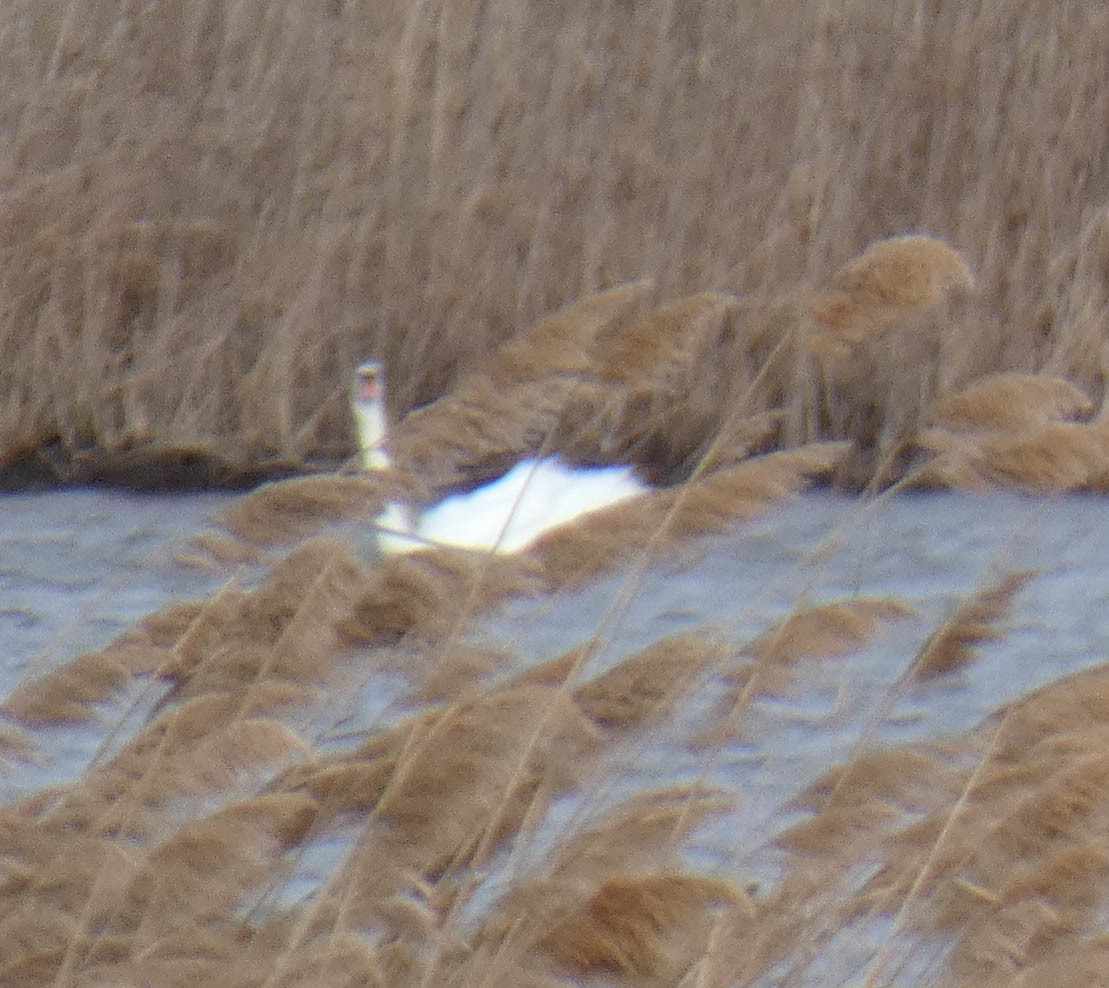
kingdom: Animalia
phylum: Chordata
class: Aves
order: Anseriformes
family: Anatidae
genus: Cygnus
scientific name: Cygnus olor
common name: Mute swan
